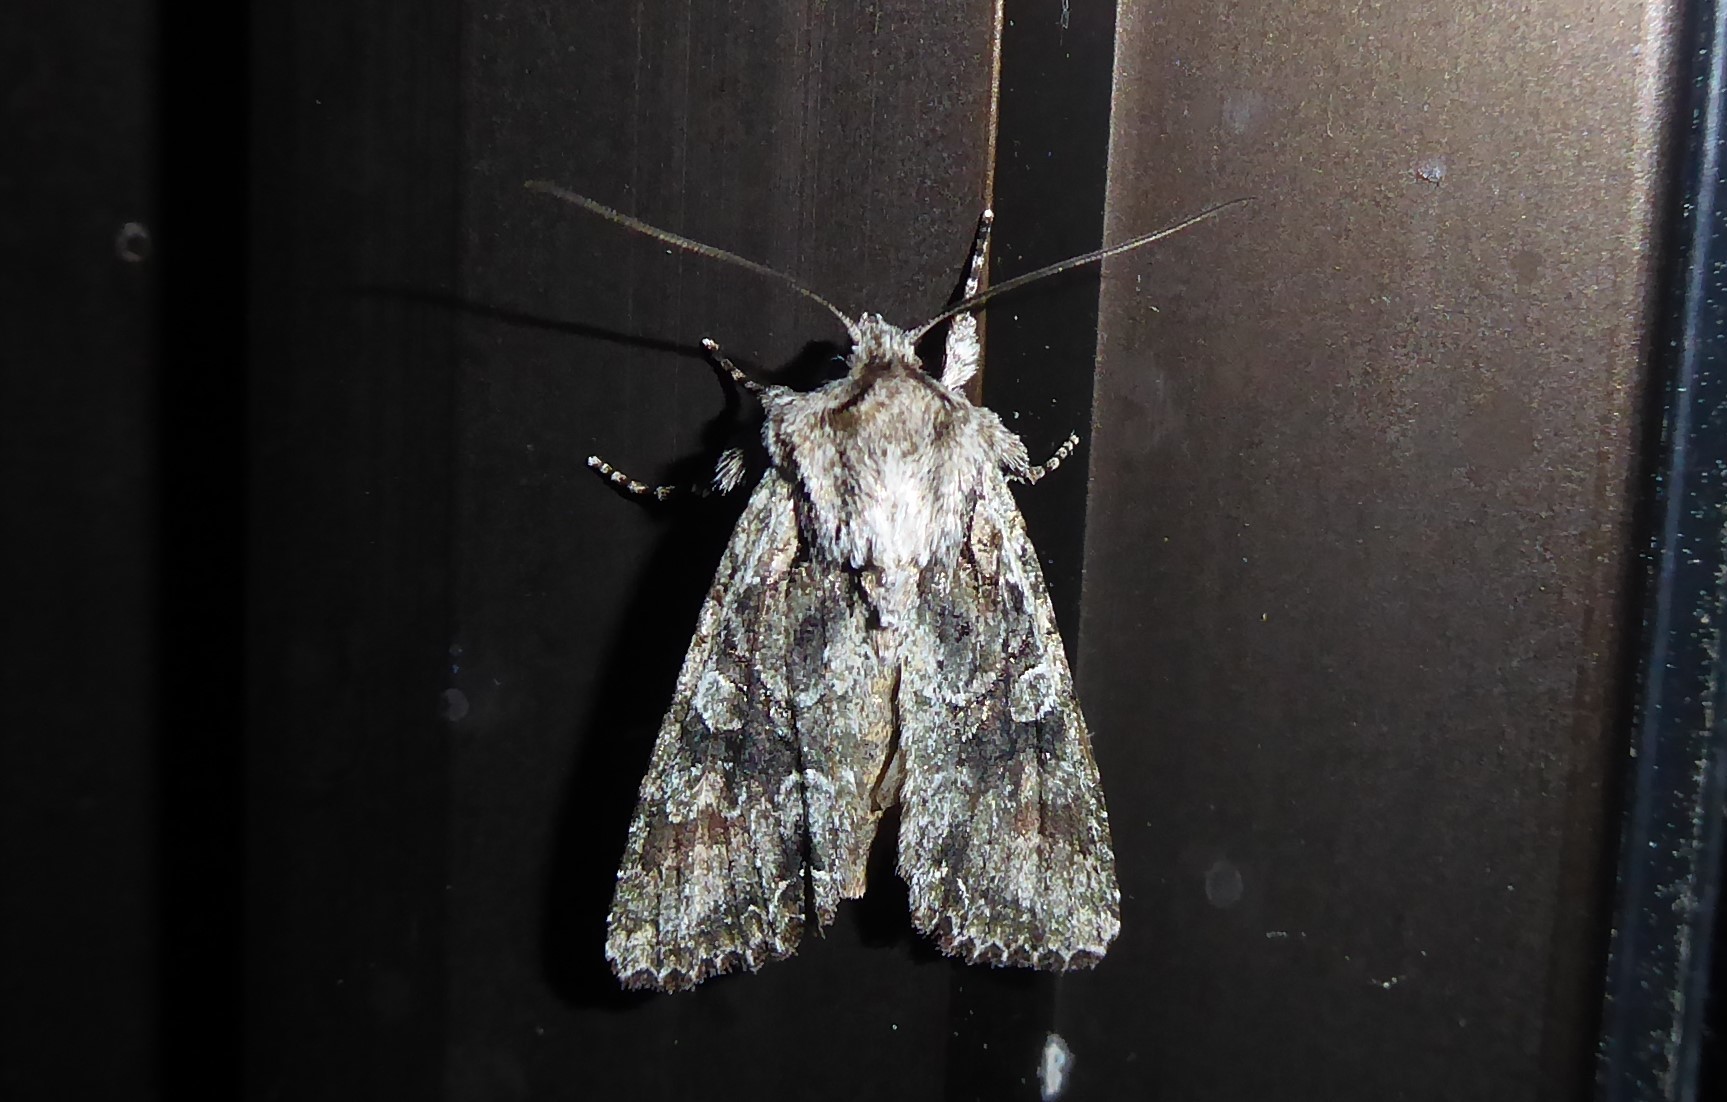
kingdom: Animalia
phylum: Arthropoda
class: Insecta
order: Lepidoptera
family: Noctuidae
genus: Ichneutica
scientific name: Ichneutica mutans
